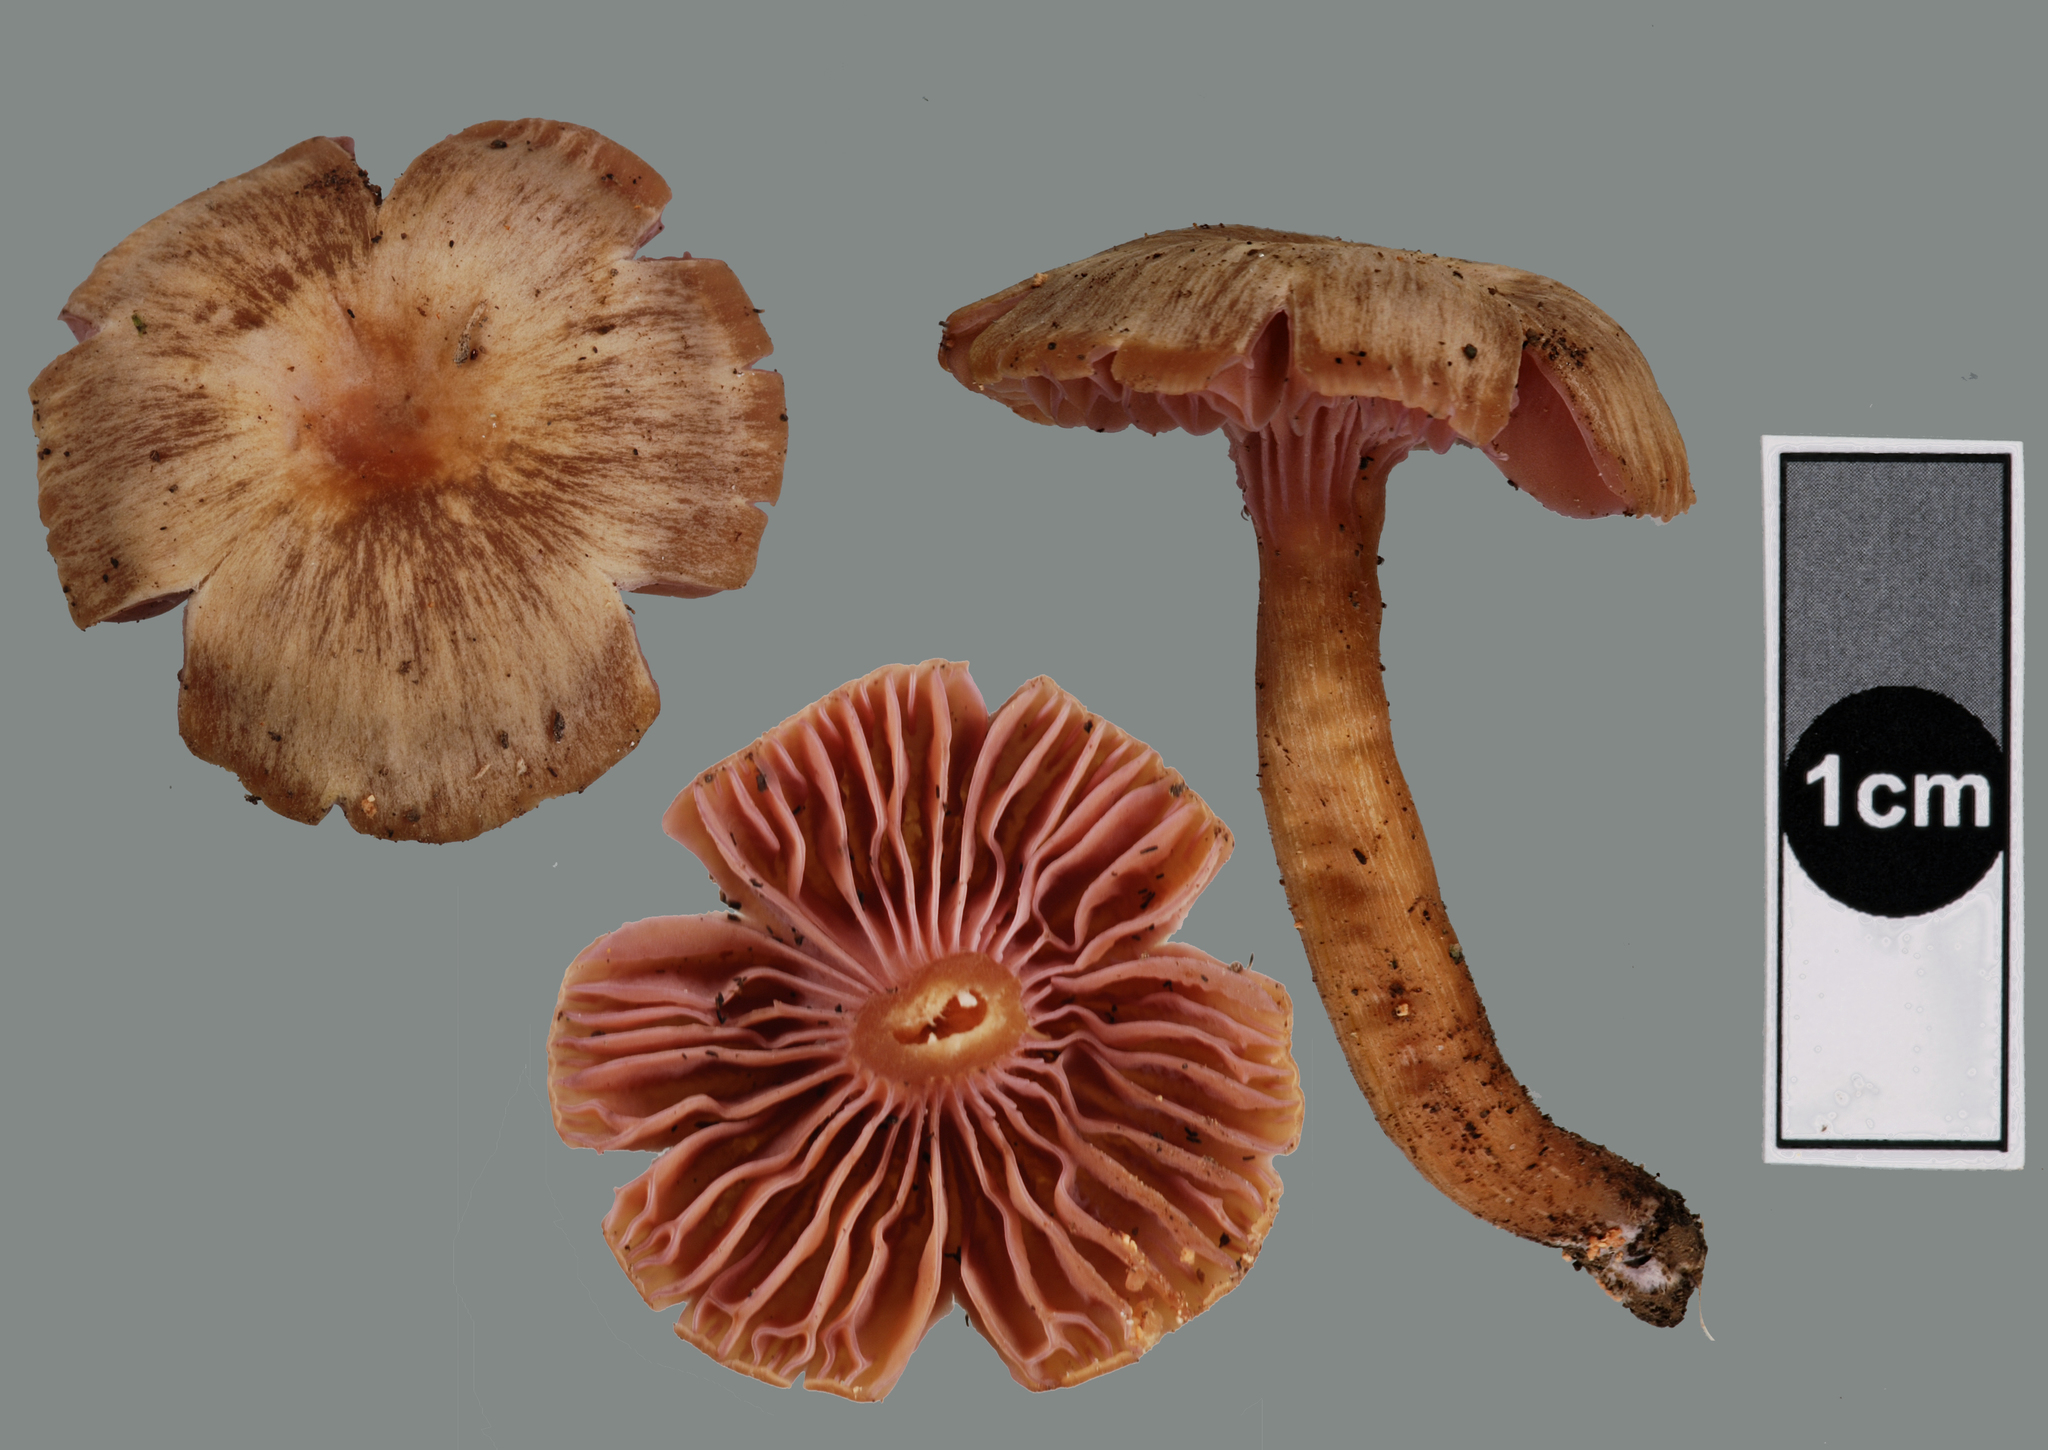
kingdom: Fungi
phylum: Basidiomycota
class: Agaricomycetes
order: Agaricales
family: Hygrophoraceae
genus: Hygrocybe
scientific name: Hygrocybe lilaceolamellata
